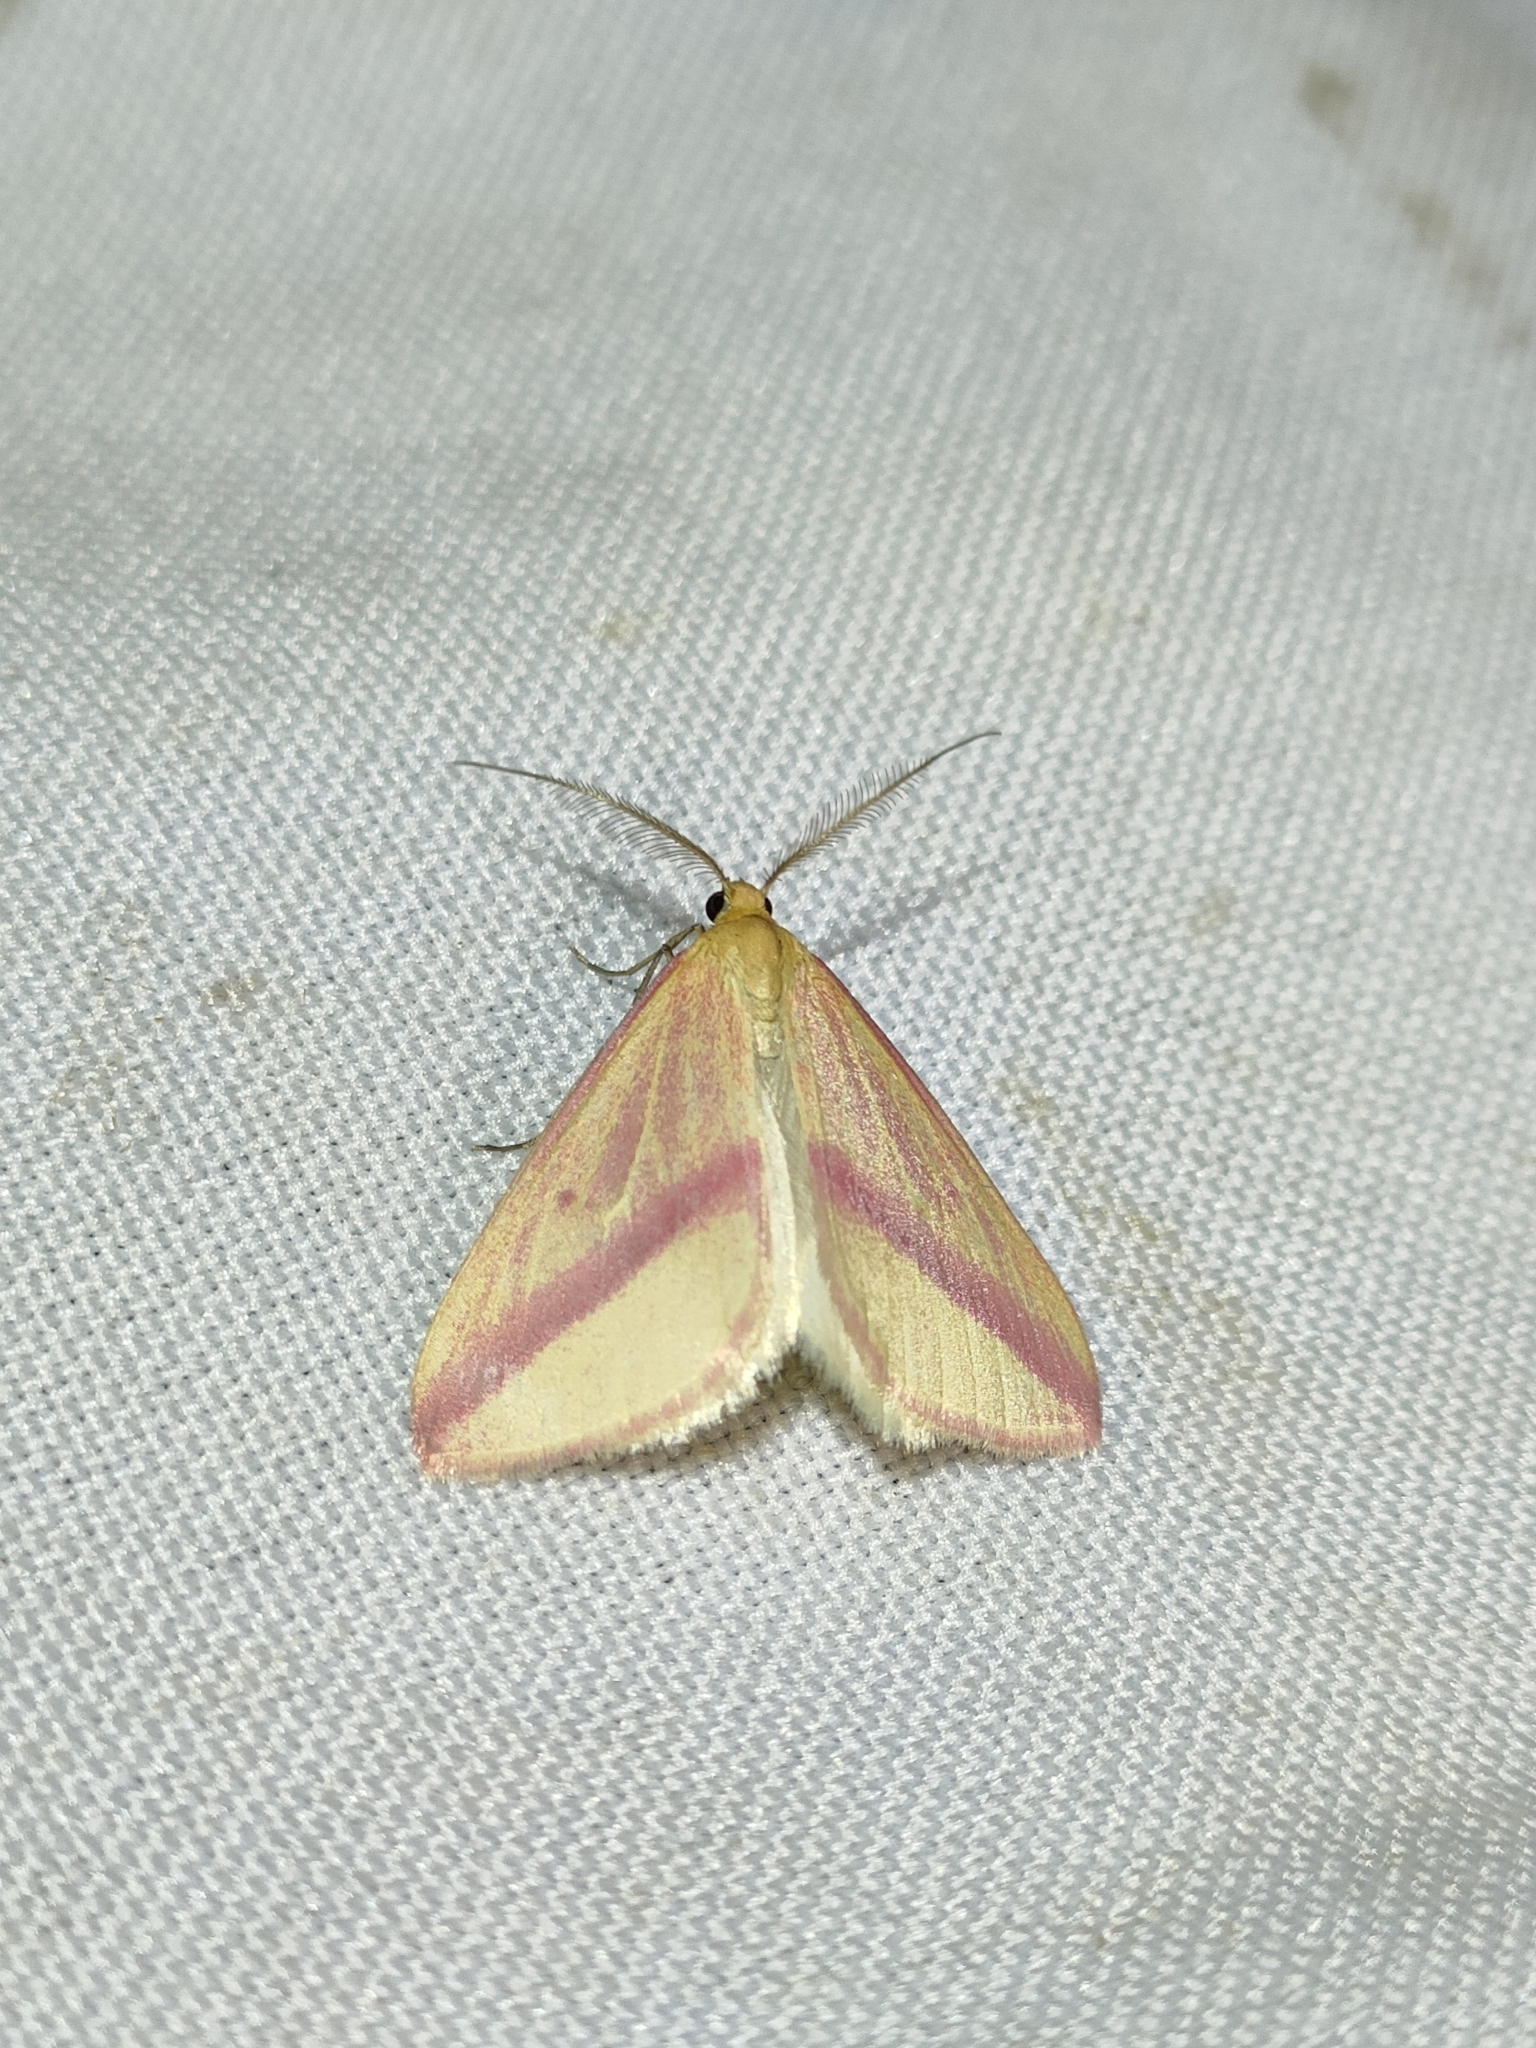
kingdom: Animalia
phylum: Arthropoda
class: Insecta
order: Lepidoptera
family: Geometridae
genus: Rhodometra
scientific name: Rhodometra sacraria
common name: Vestal
